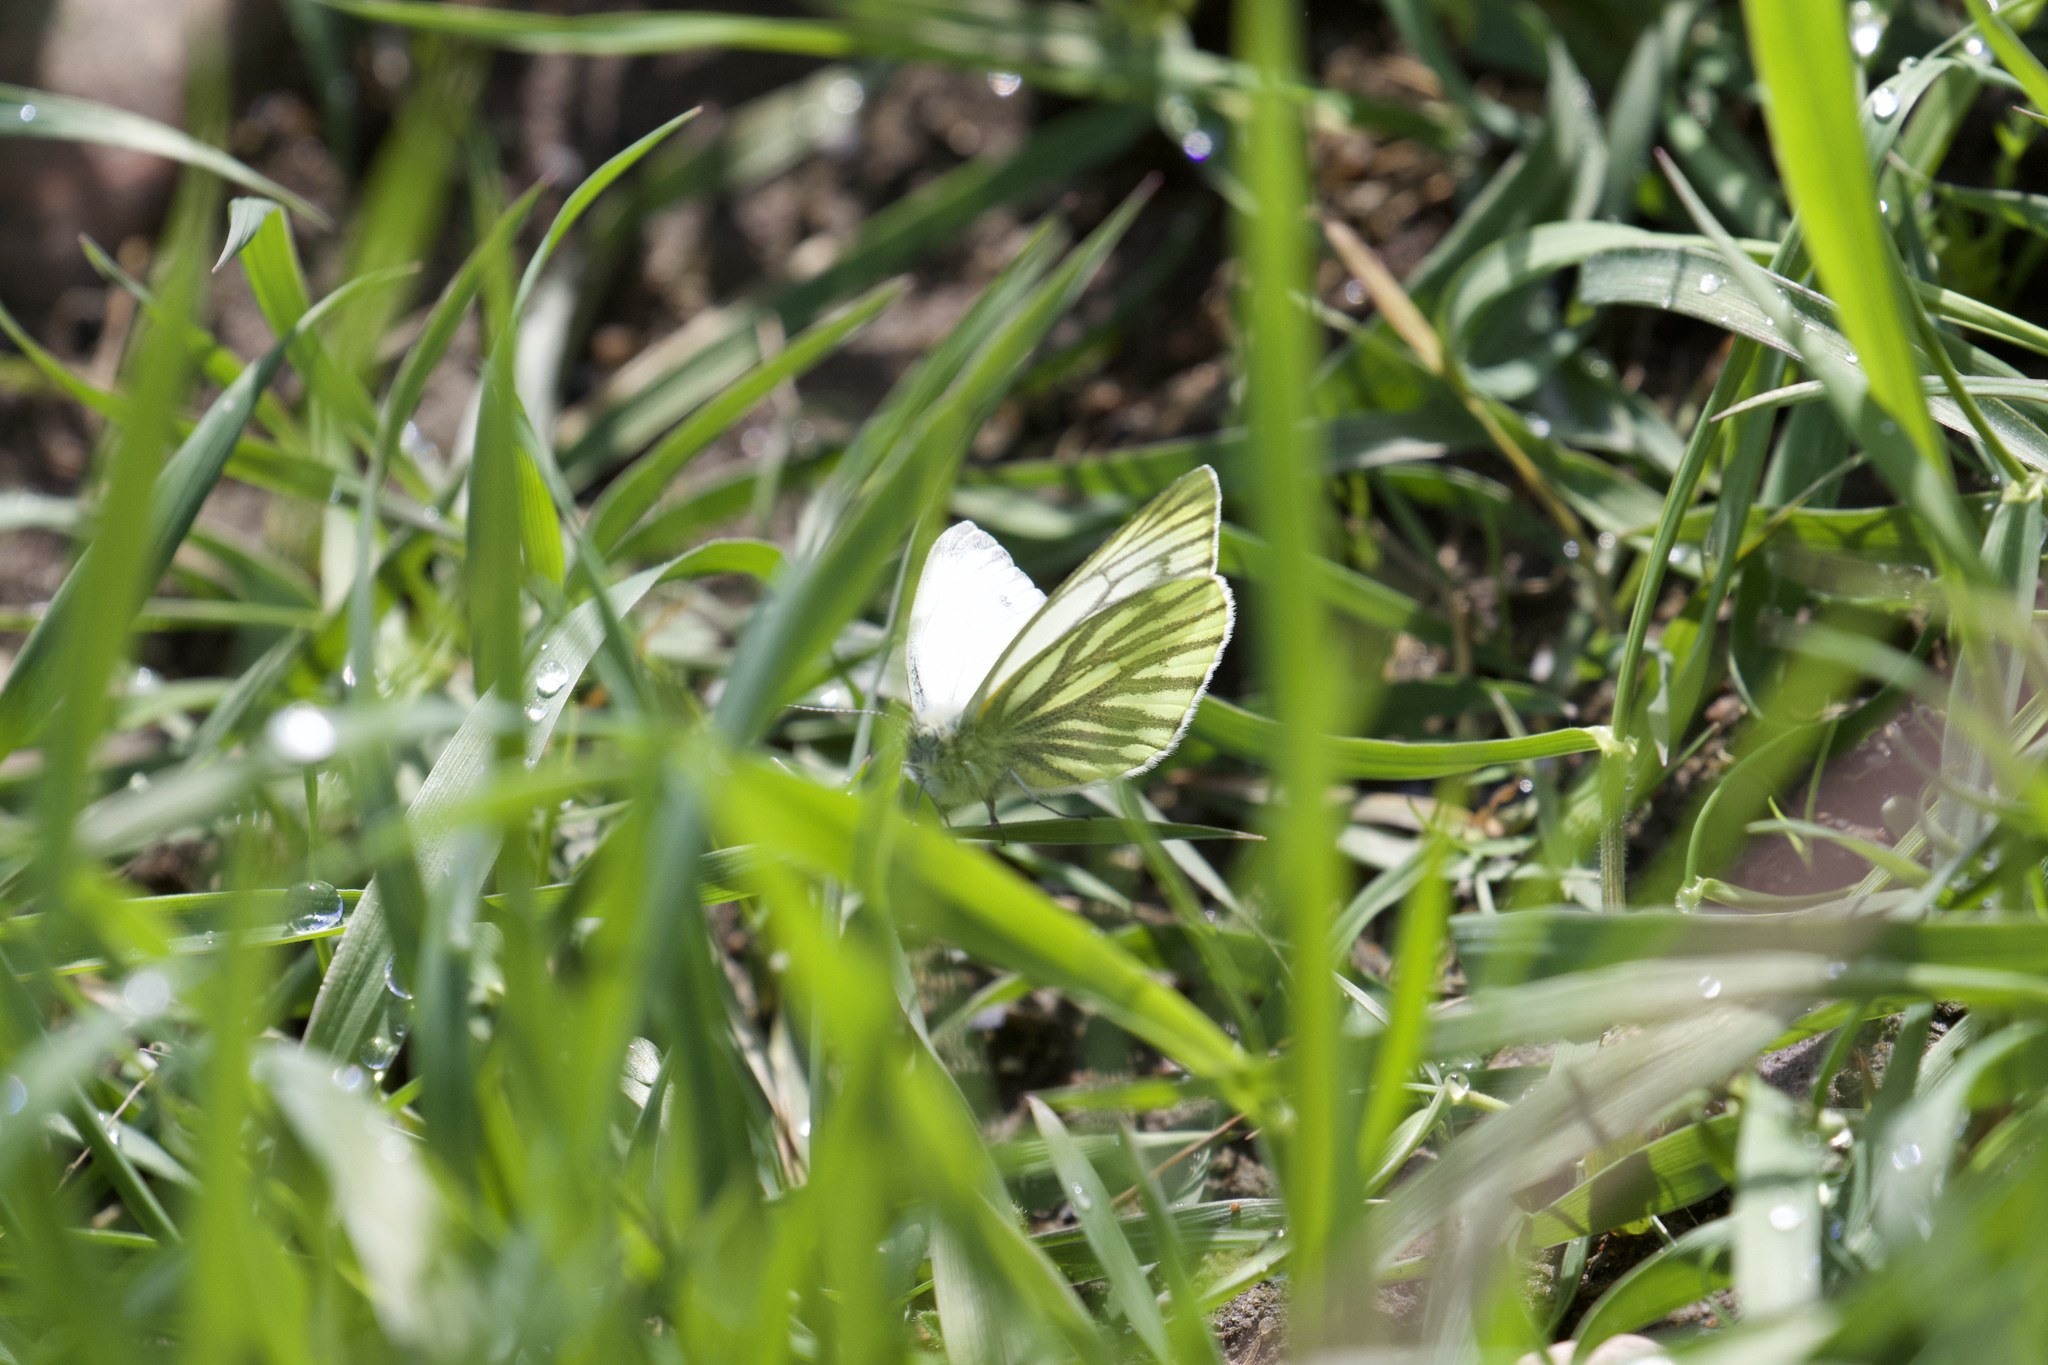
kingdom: Animalia
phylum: Arthropoda
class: Insecta
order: Lepidoptera
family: Pieridae
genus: Pieris
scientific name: Pieris napi
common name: Green-veined white
